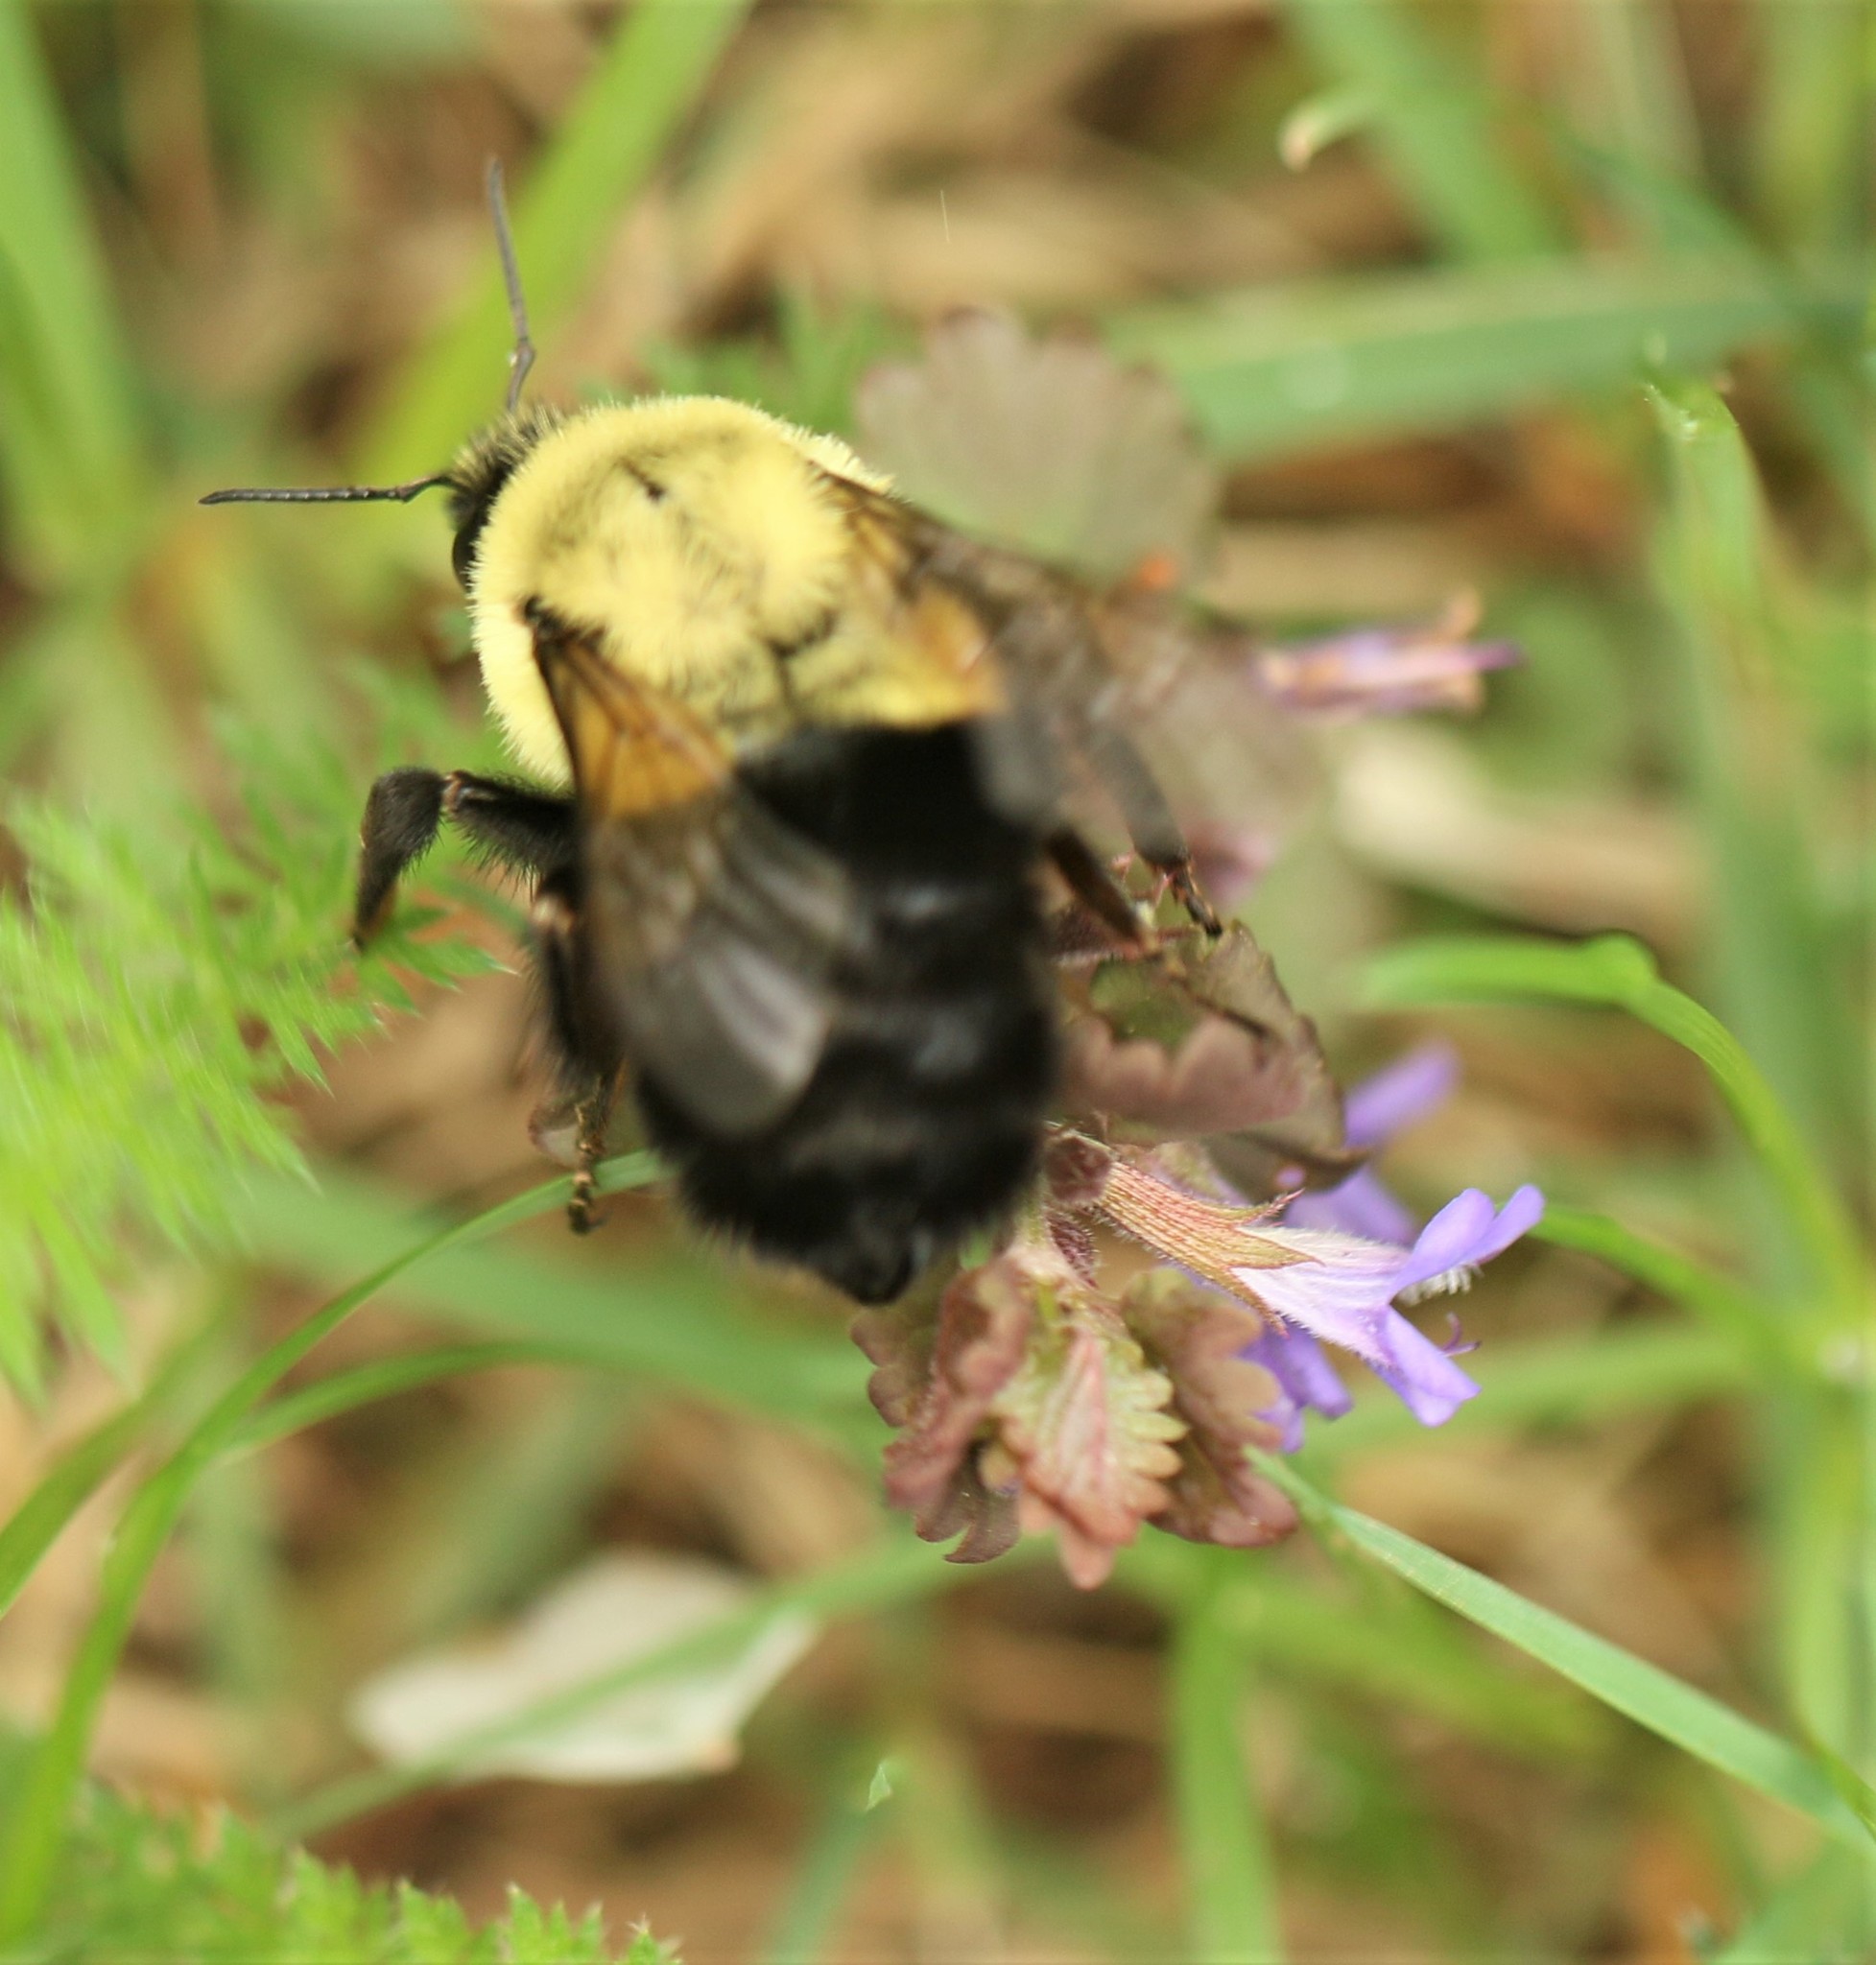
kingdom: Animalia
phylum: Arthropoda
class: Insecta
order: Hymenoptera
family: Apidae
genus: Bombus
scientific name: Bombus impatiens
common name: Common eastern bumble bee
